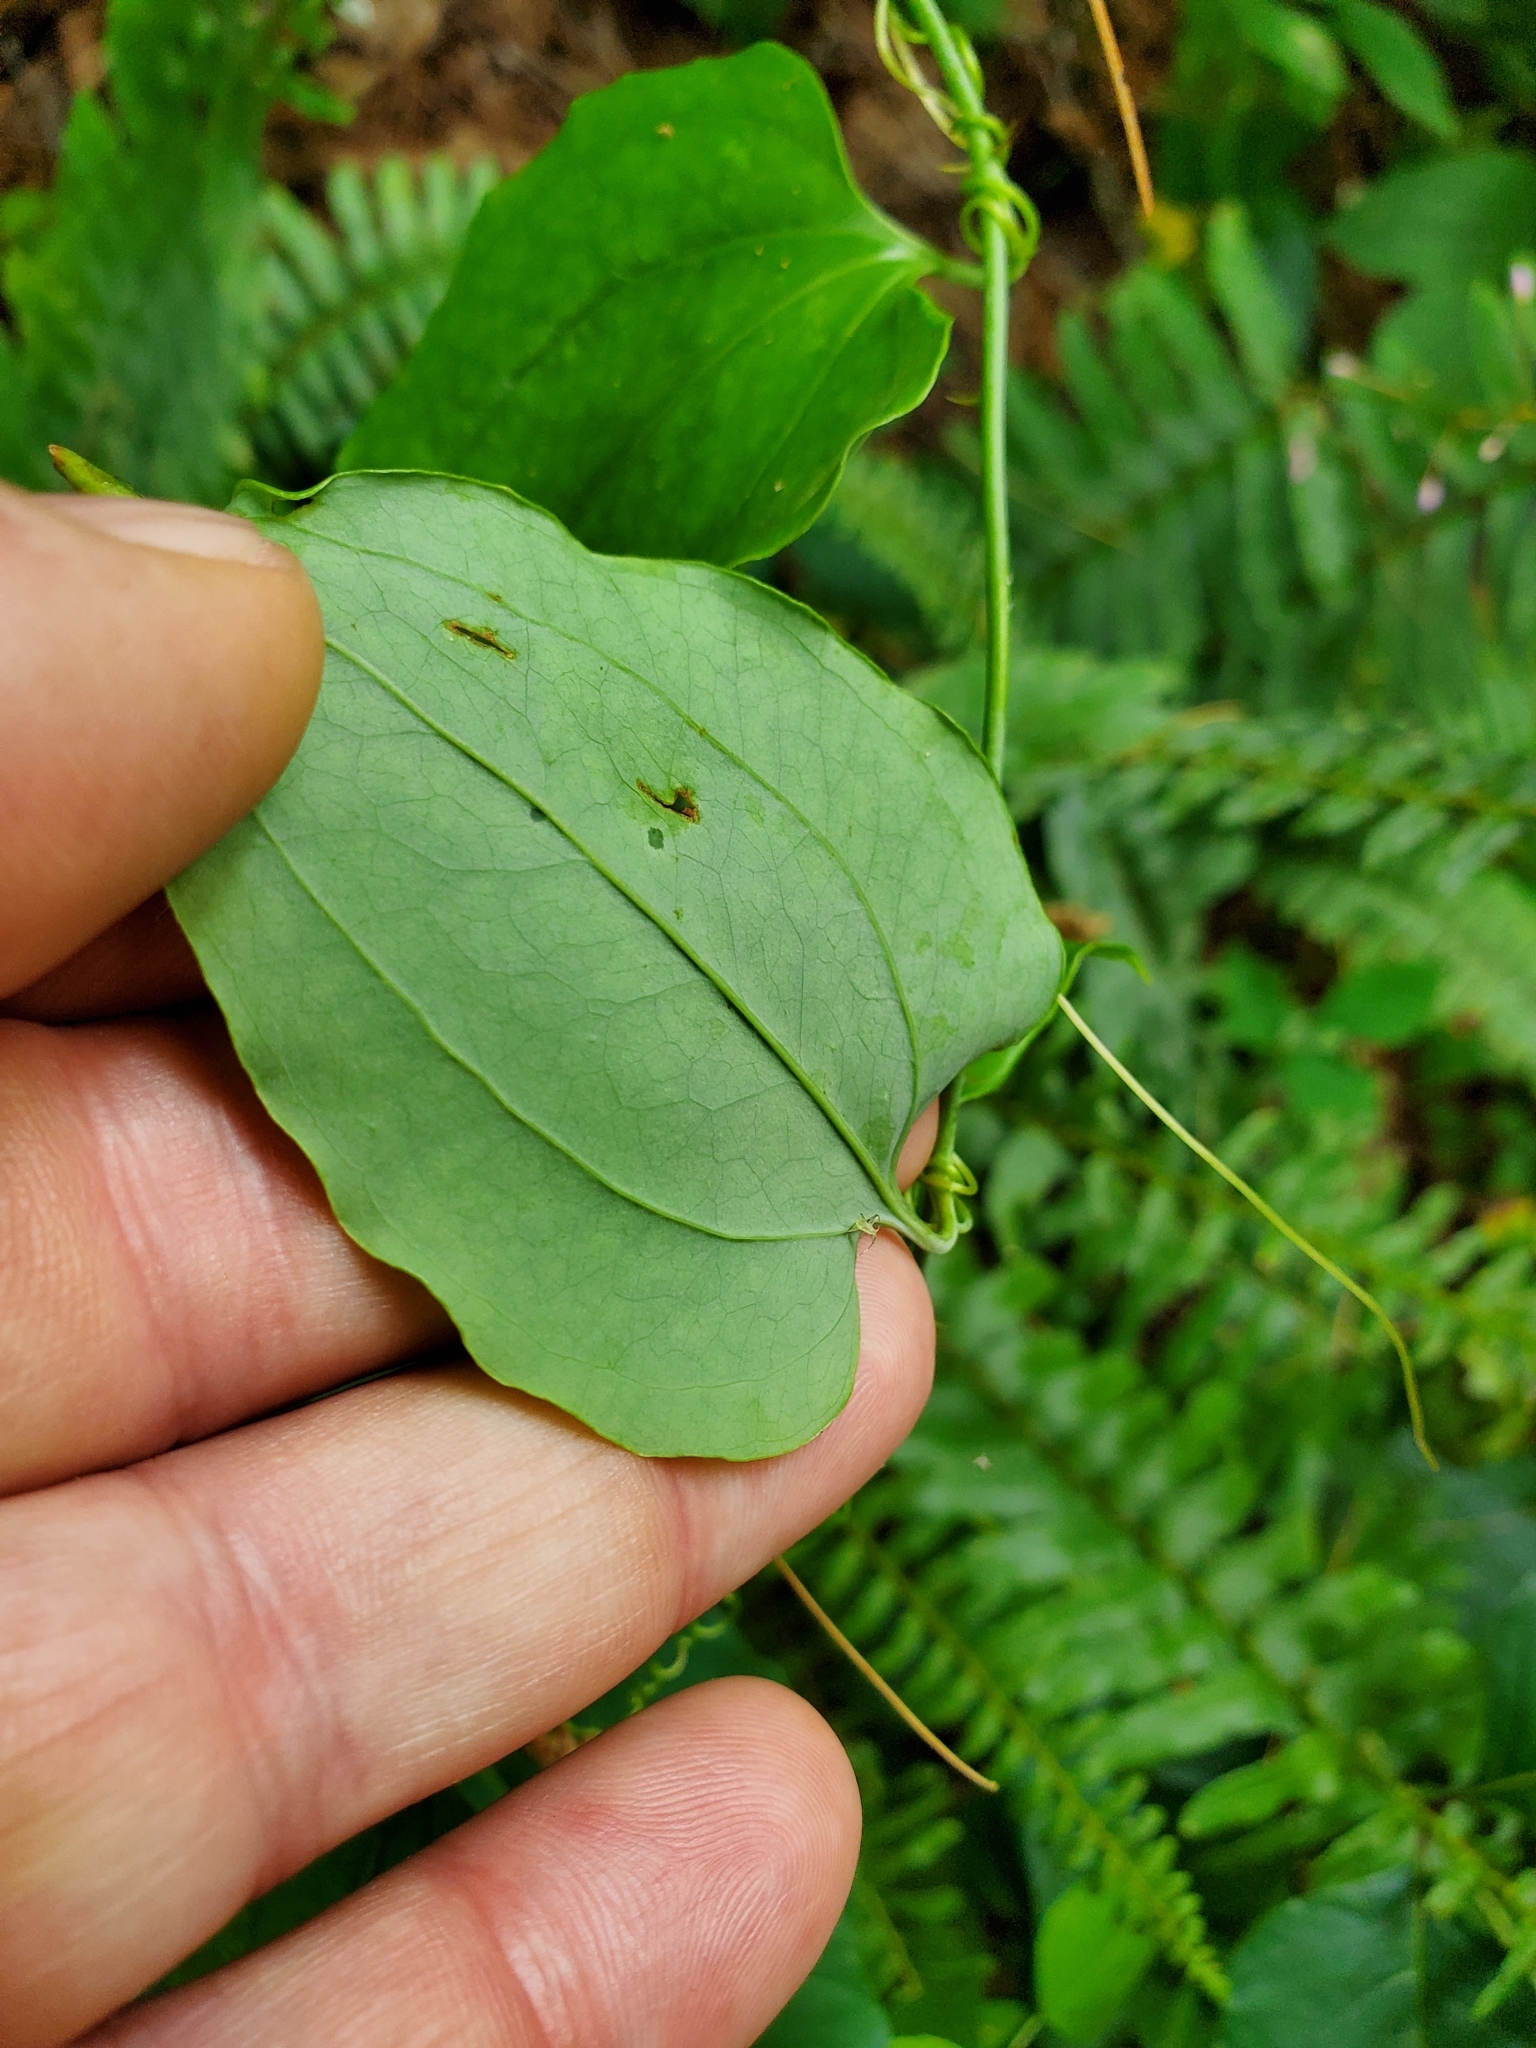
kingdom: Plantae
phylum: Tracheophyta
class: Liliopsida
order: Liliales
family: Smilacaceae
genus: Smilax
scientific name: Smilax glauca
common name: Cat greenbrier
